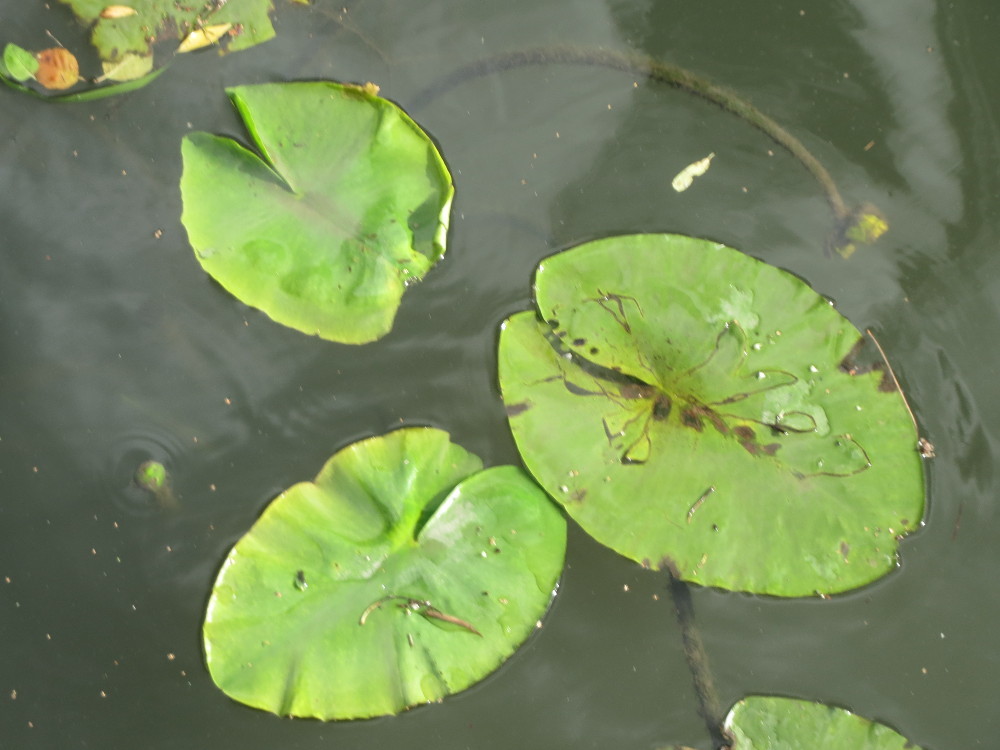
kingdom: Plantae
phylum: Tracheophyta
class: Magnoliopsida
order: Nymphaeales
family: Nymphaeaceae
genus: Nuphar
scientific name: Nuphar lutea
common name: Yellow water-lily
